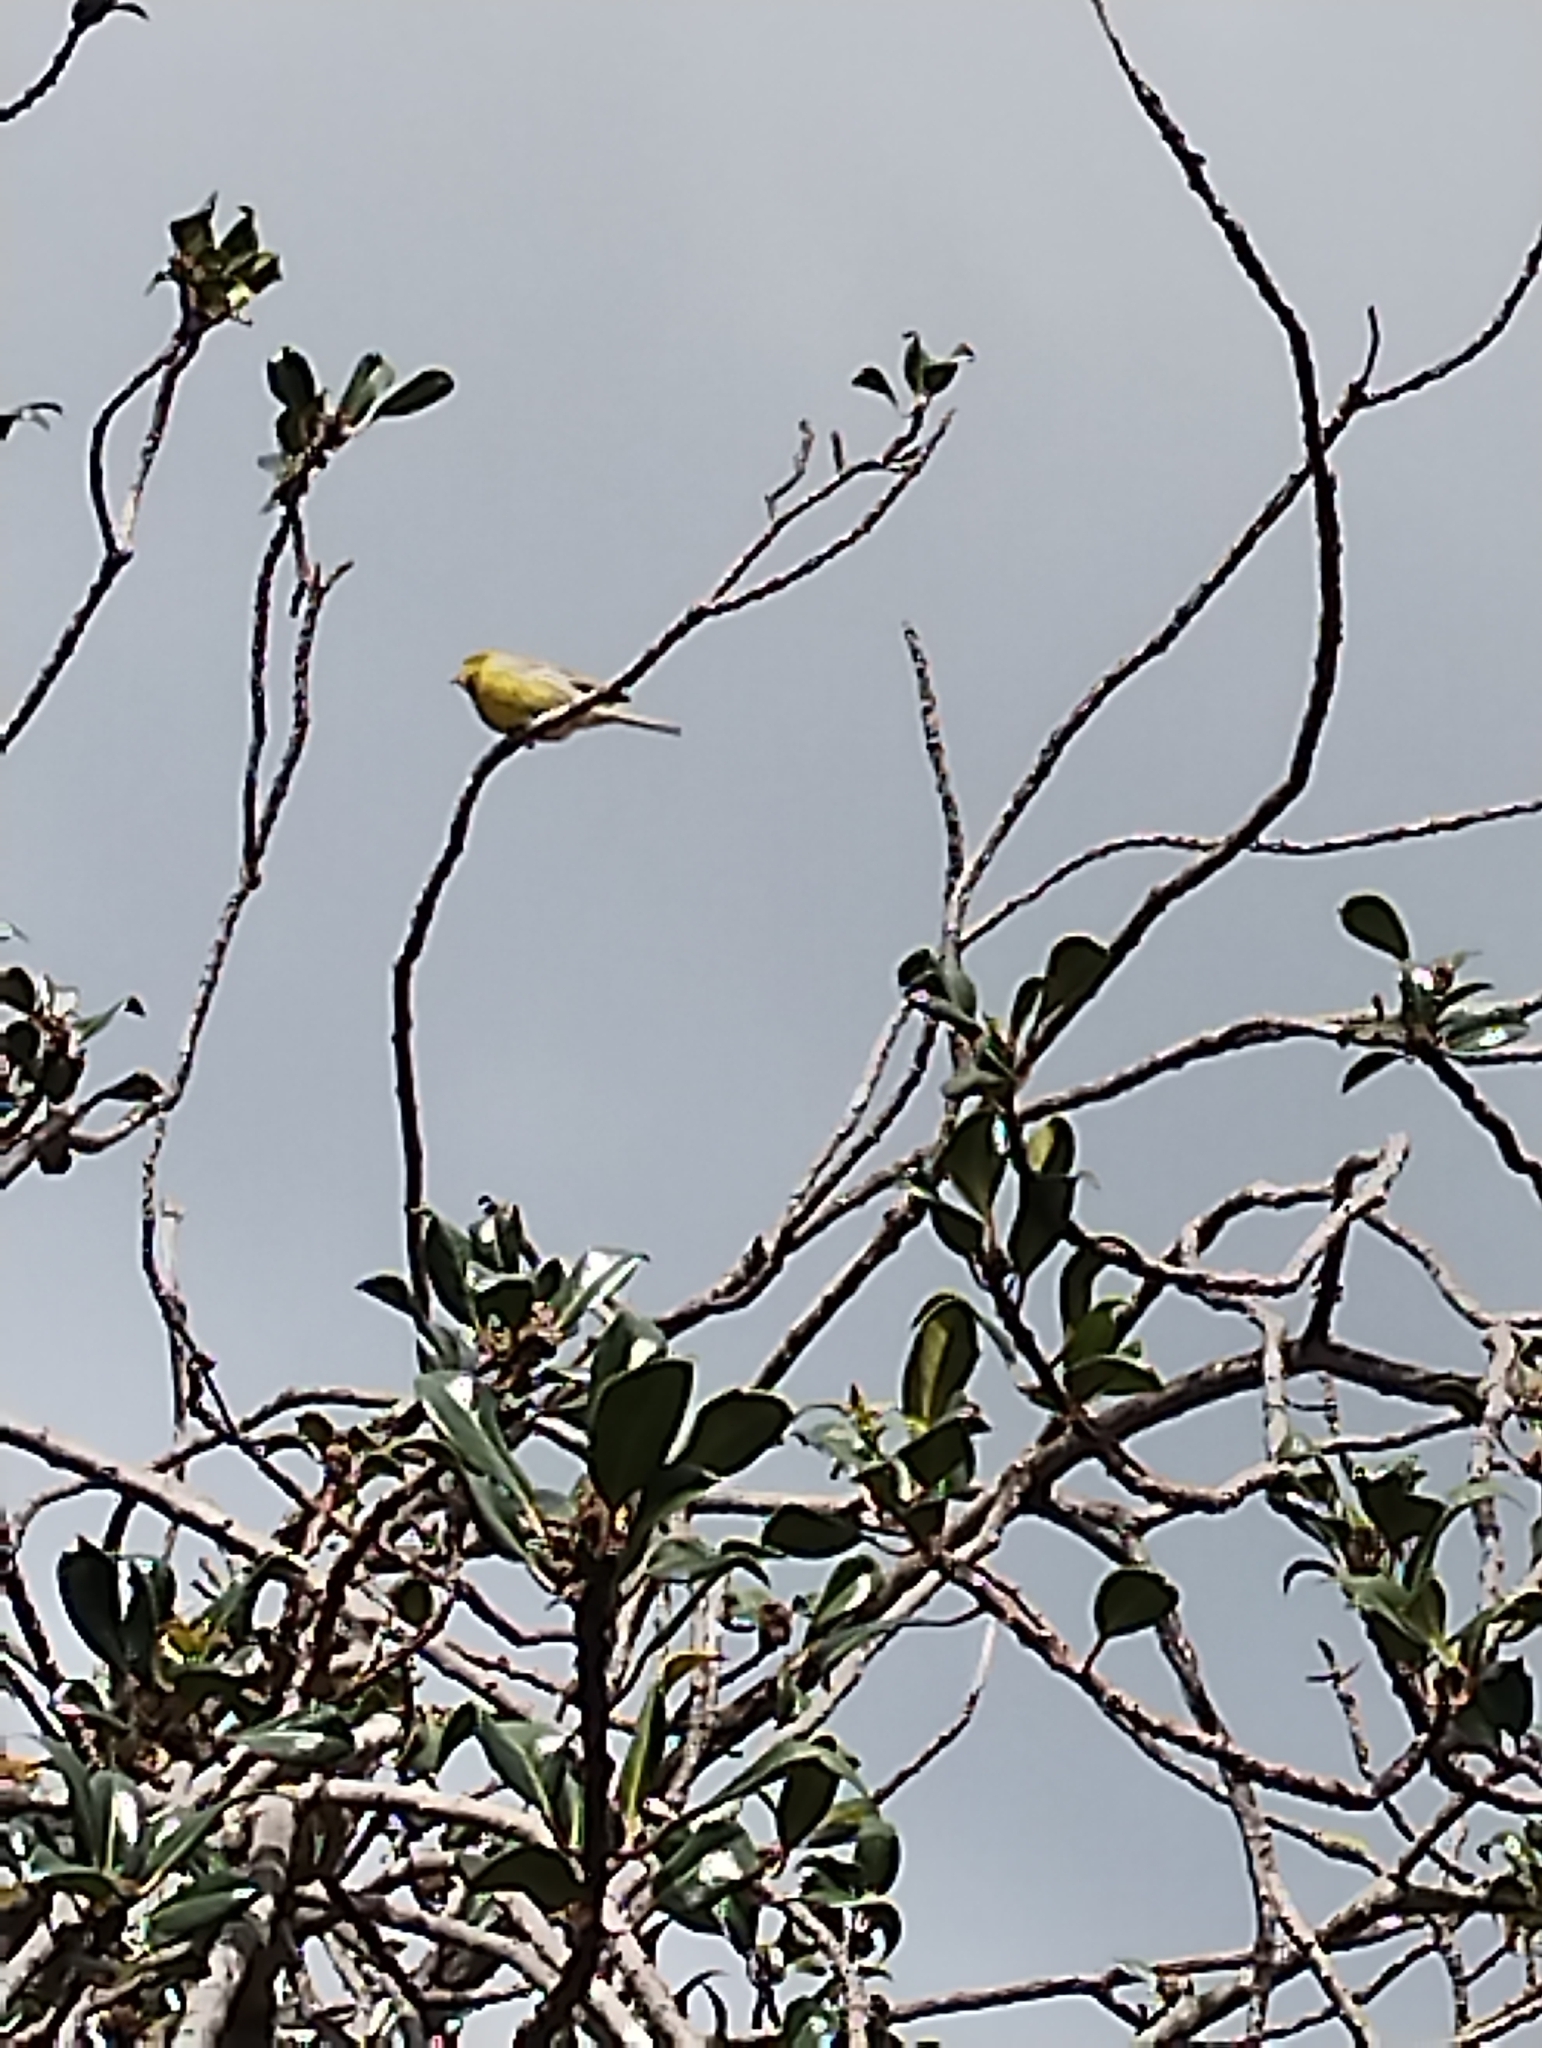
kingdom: Animalia
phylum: Chordata
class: Aves
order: Passeriformes
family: Fringillidae
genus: Serinus
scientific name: Serinus canaria
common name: Atlantic canary
